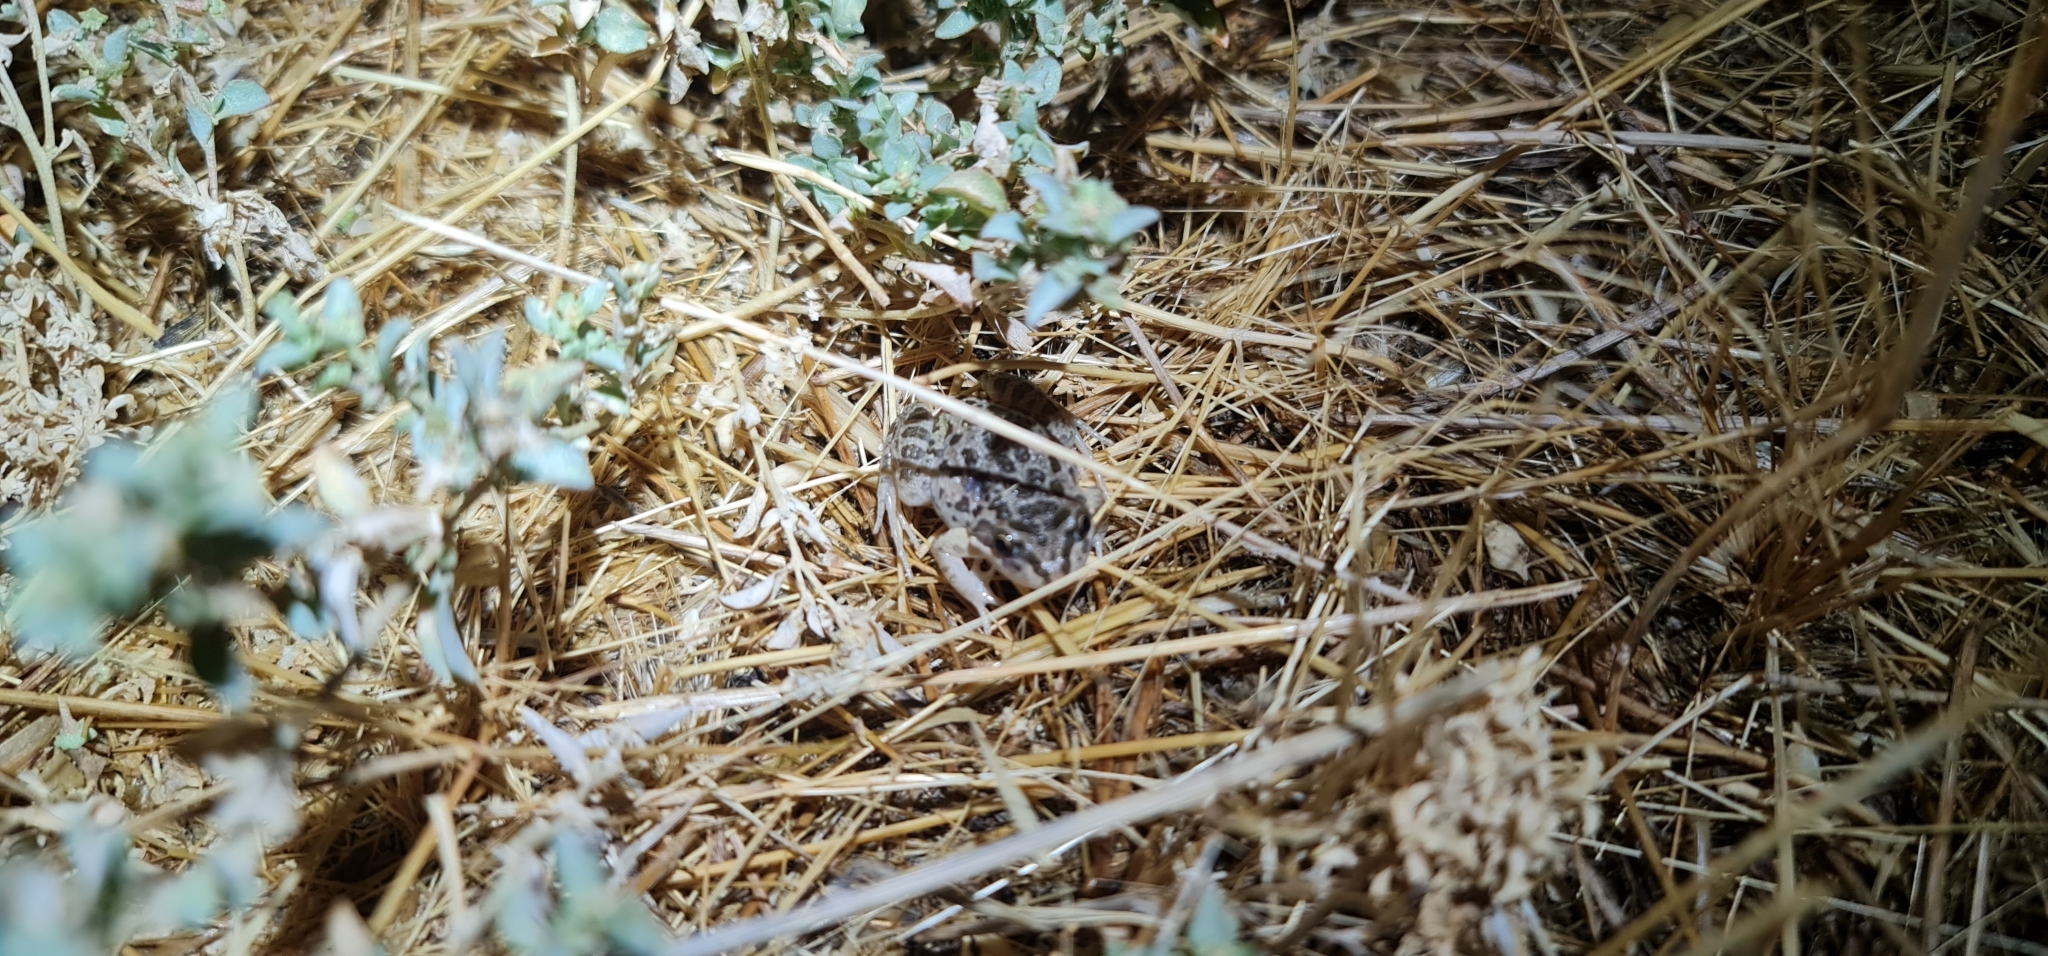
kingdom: Animalia
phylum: Chordata
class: Amphibia
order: Anura
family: Limnodynastidae
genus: Limnodynastes
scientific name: Limnodynastes tasmaniensis
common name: Spotted marsh frog
